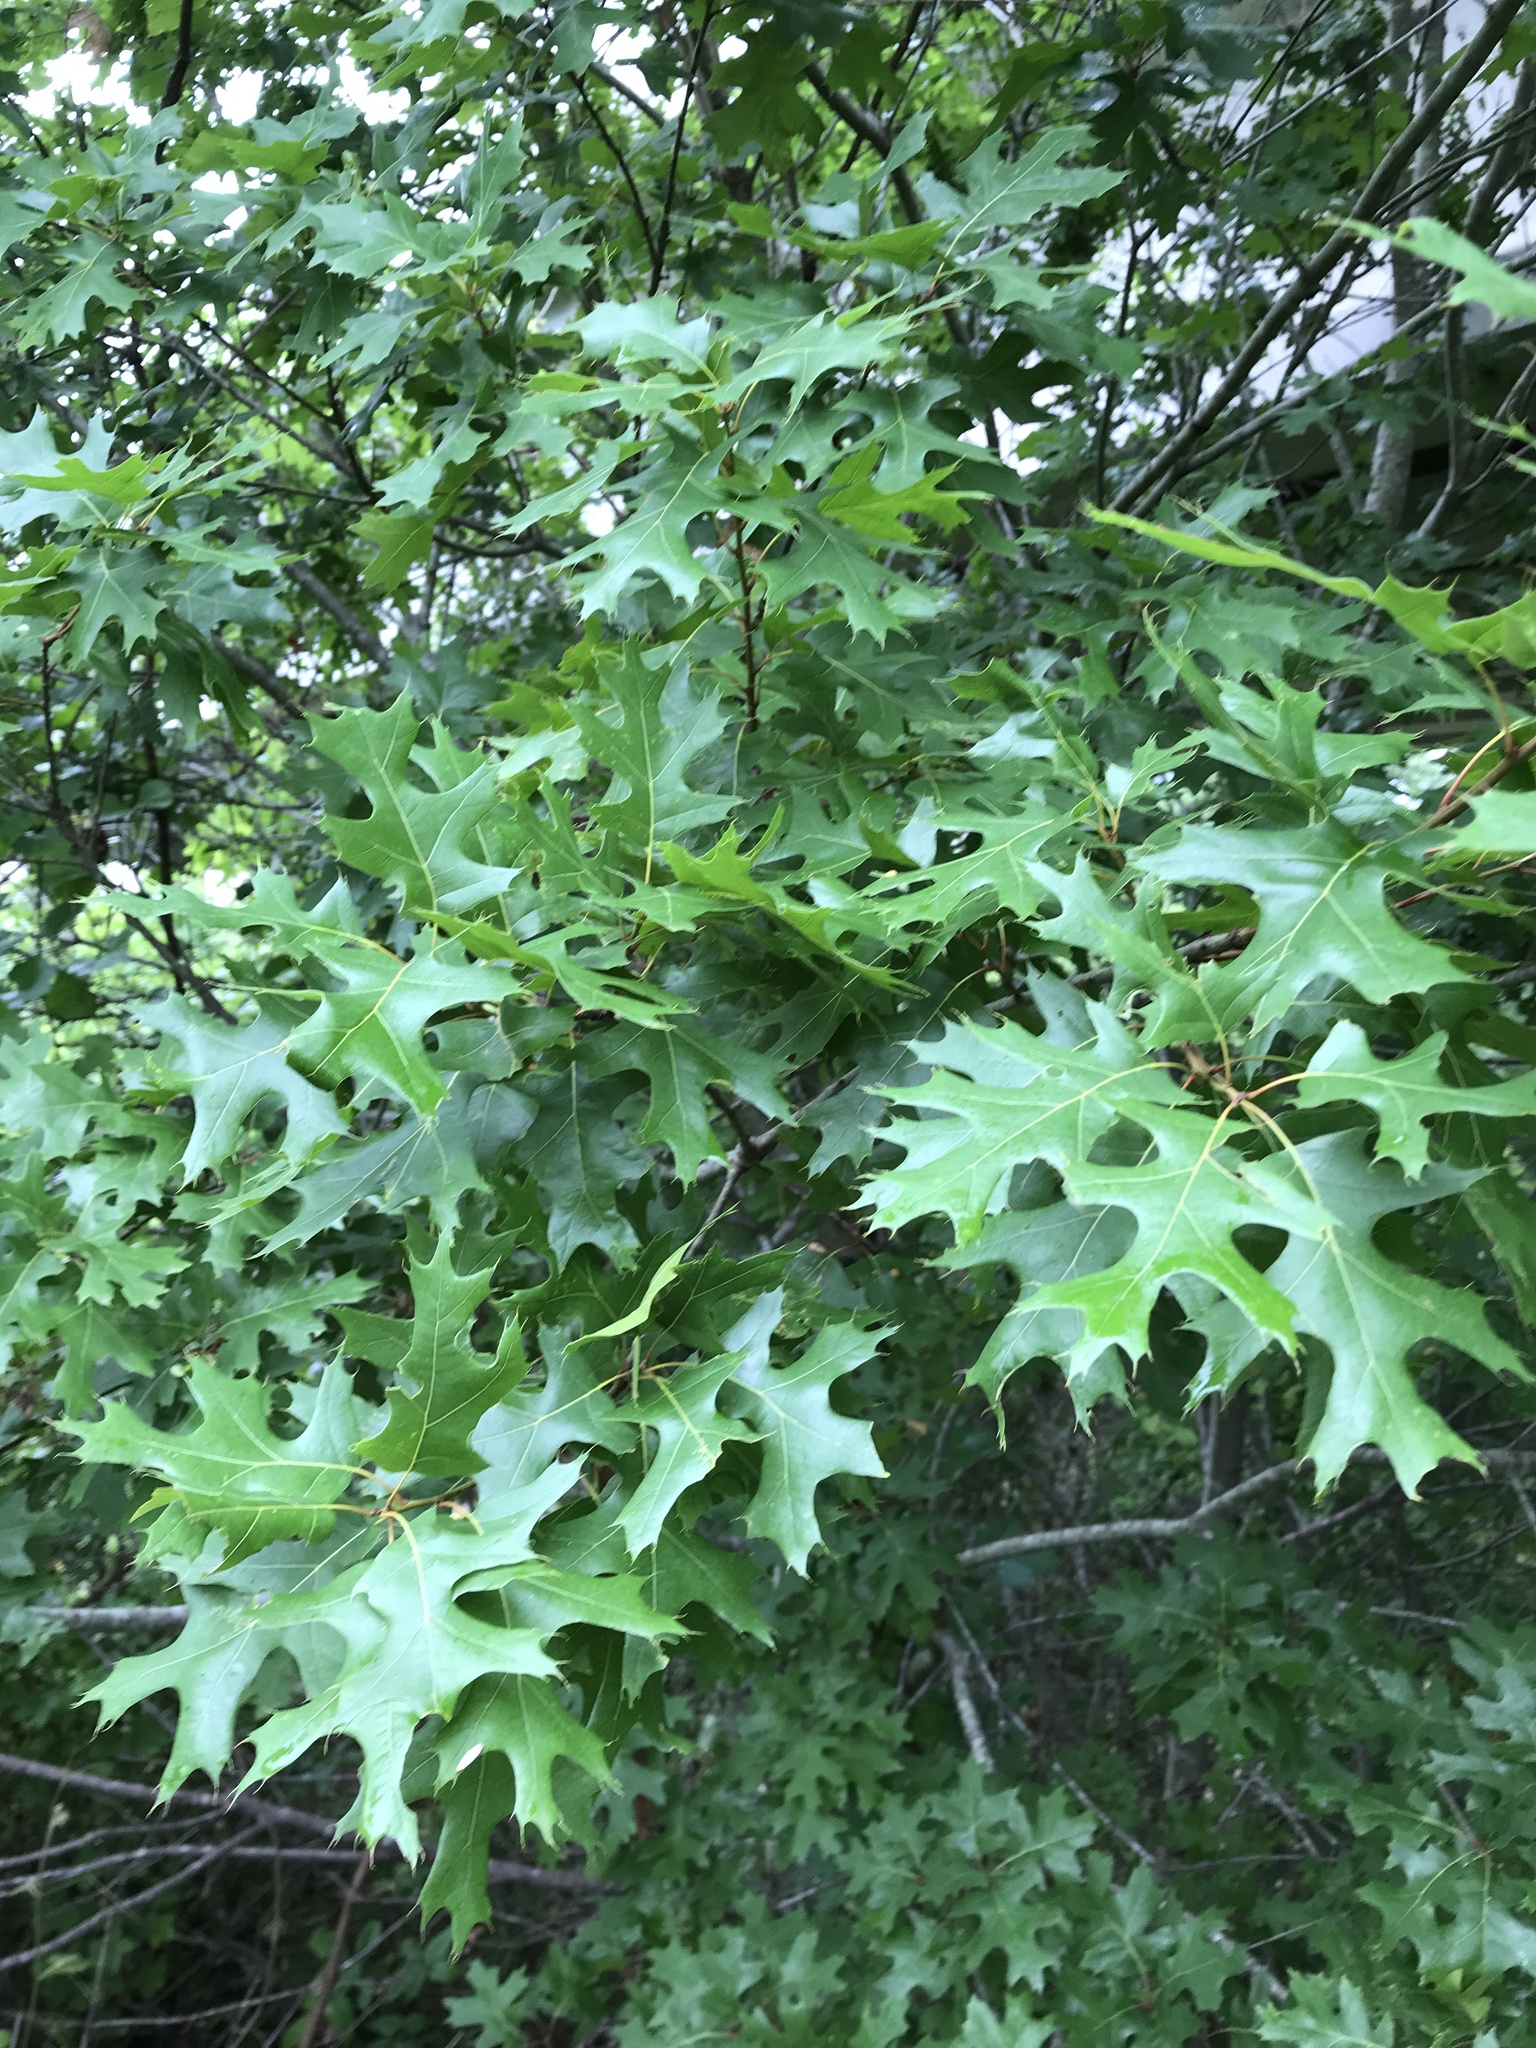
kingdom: Plantae
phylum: Tracheophyta
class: Magnoliopsida
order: Fagales
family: Fagaceae
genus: Quercus
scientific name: Quercus buckleyi
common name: Buckley oak
